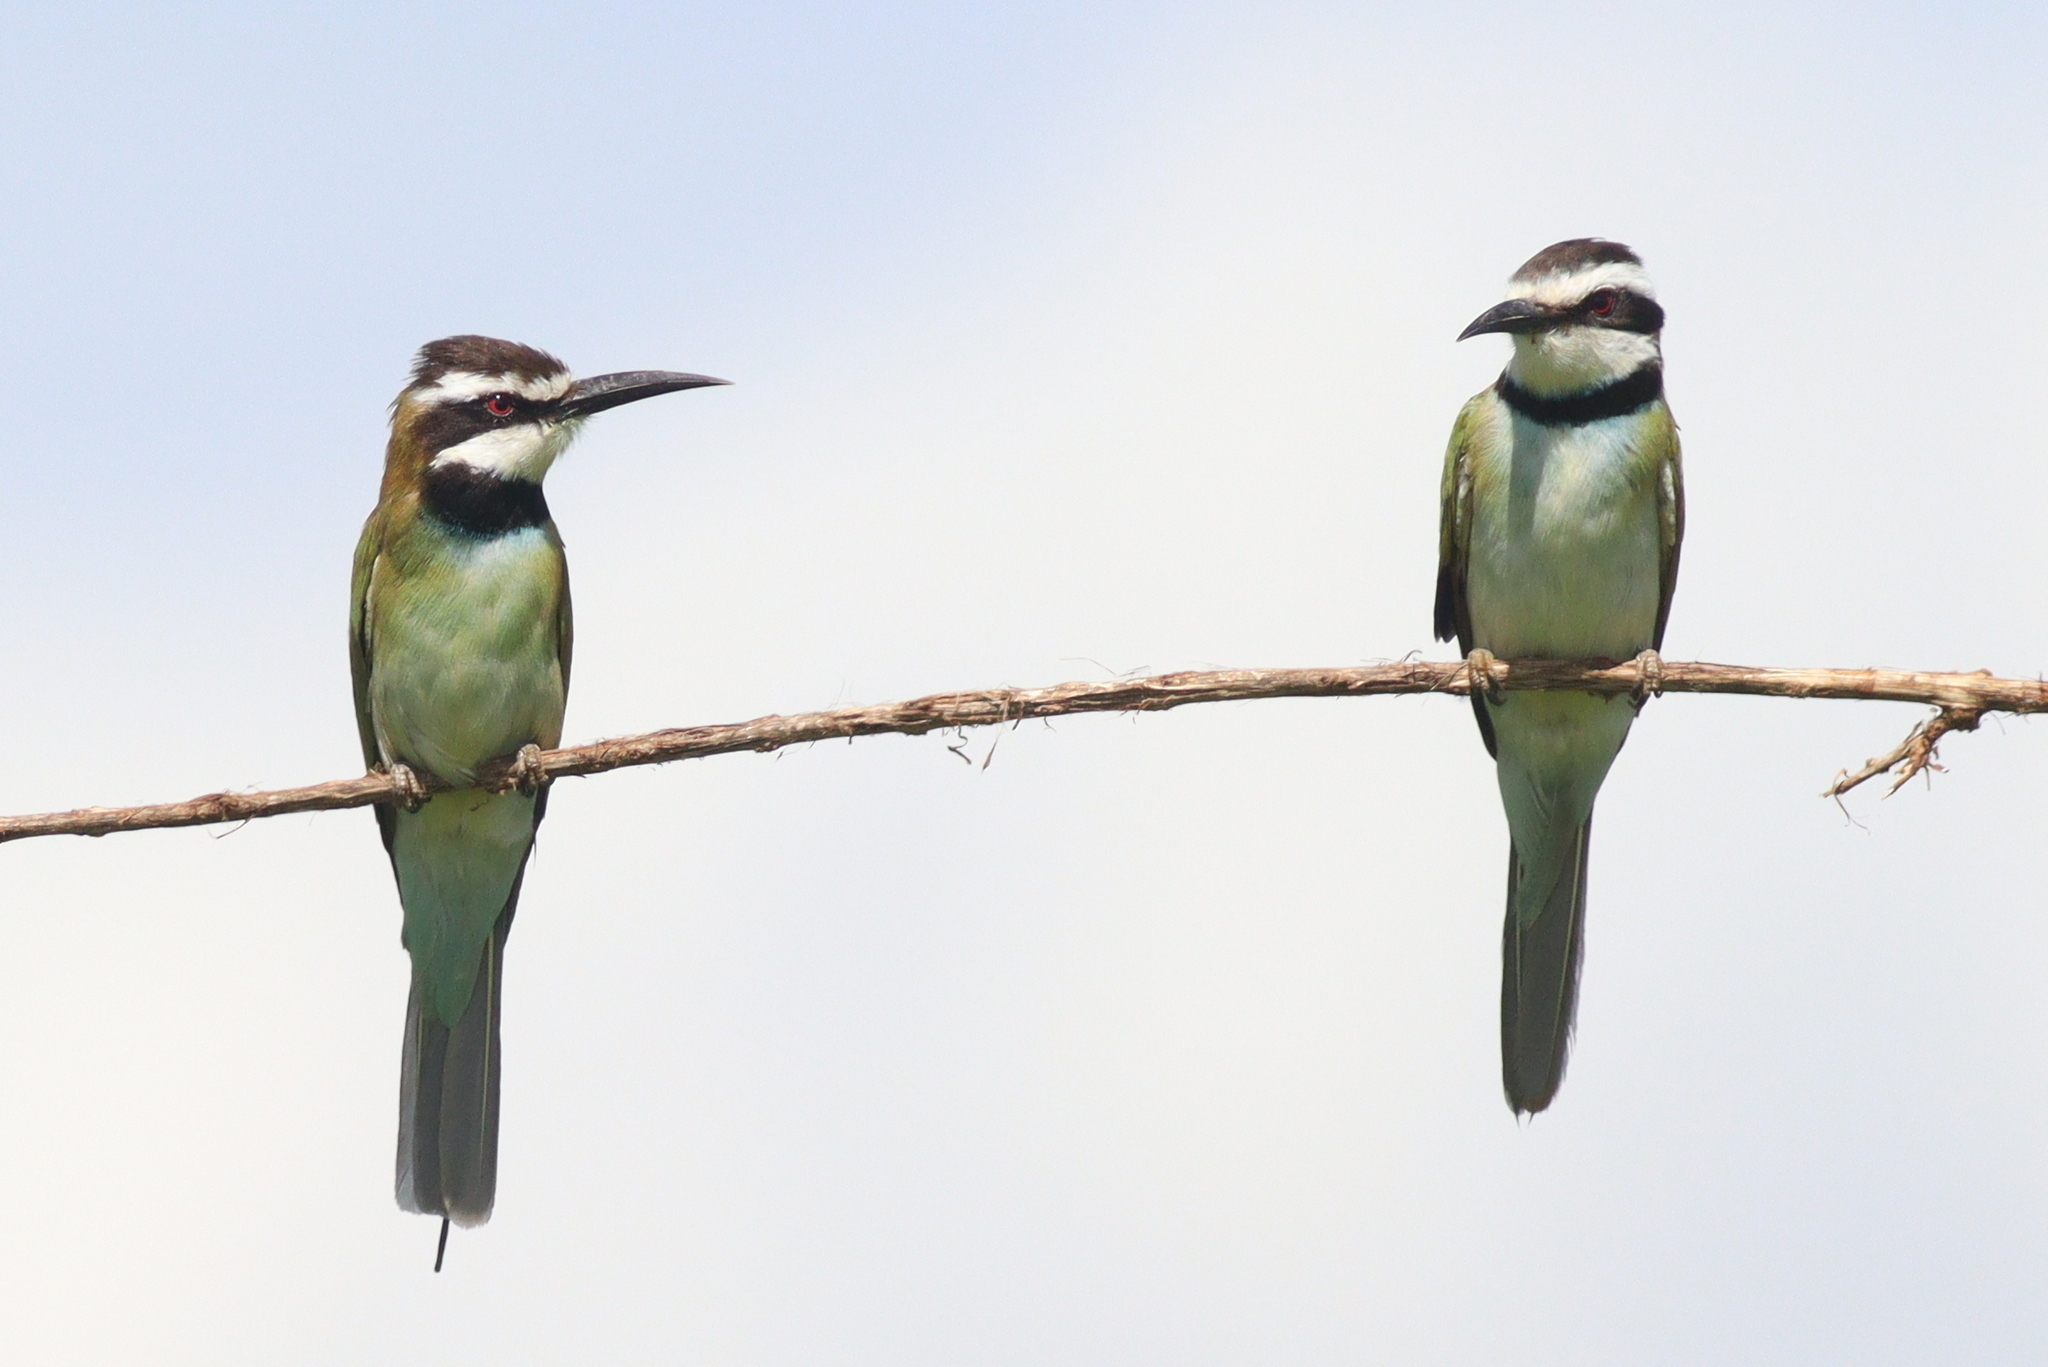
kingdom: Animalia
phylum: Chordata
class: Aves
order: Coraciiformes
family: Meropidae
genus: Merops
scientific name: Merops albicollis
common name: White-throated bee-eater
